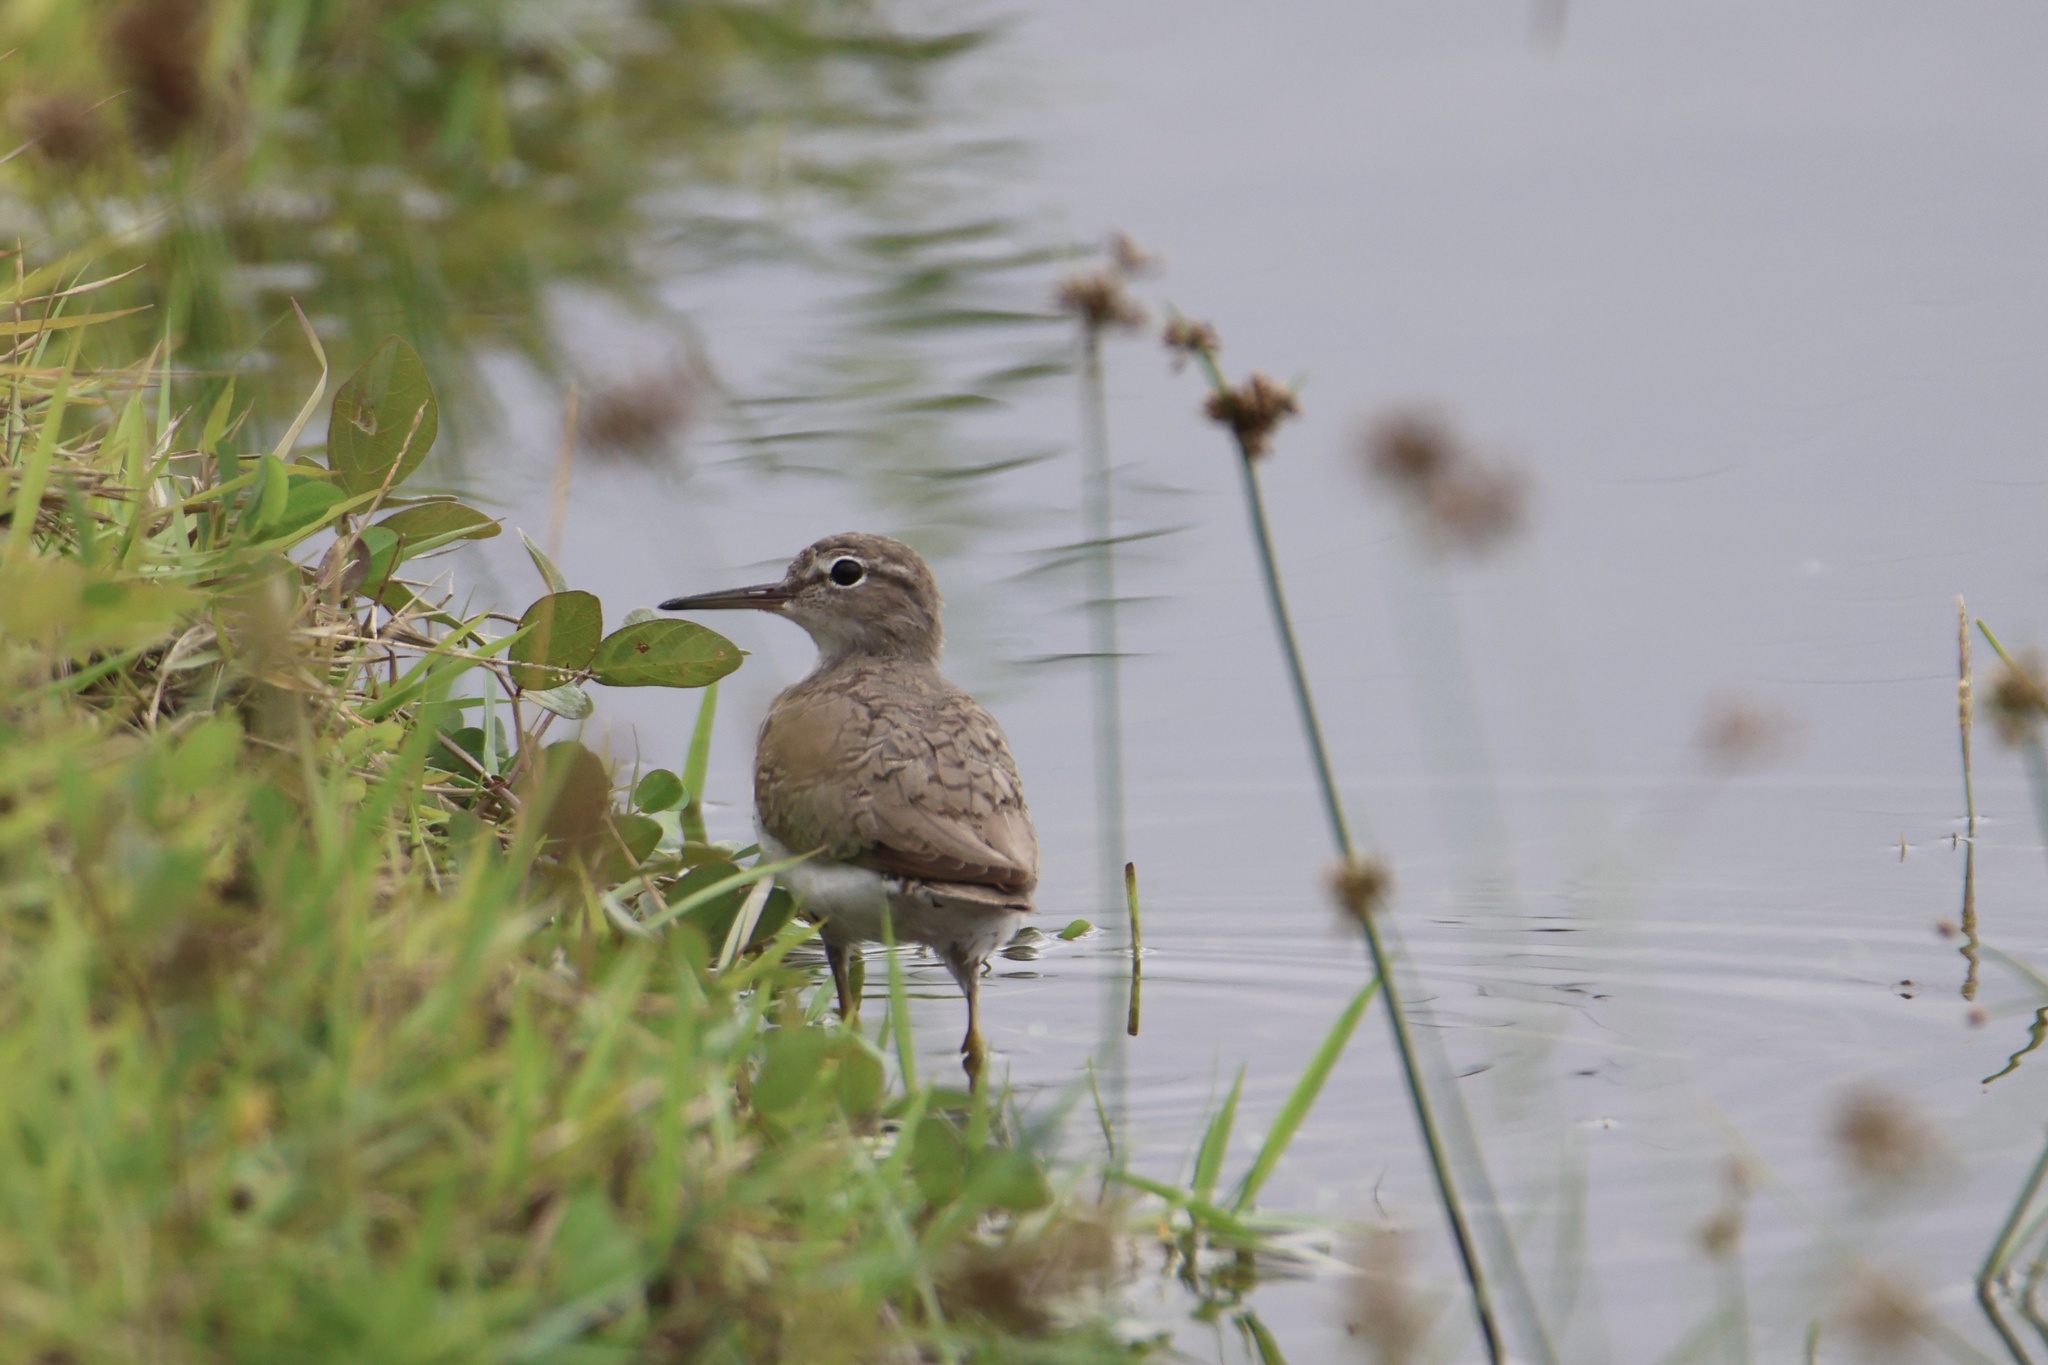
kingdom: Animalia
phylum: Chordata
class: Aves
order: Charadriiformes
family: Scolopacidae
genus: Actitis
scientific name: Actitis macularius
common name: Spotted sandpiper
